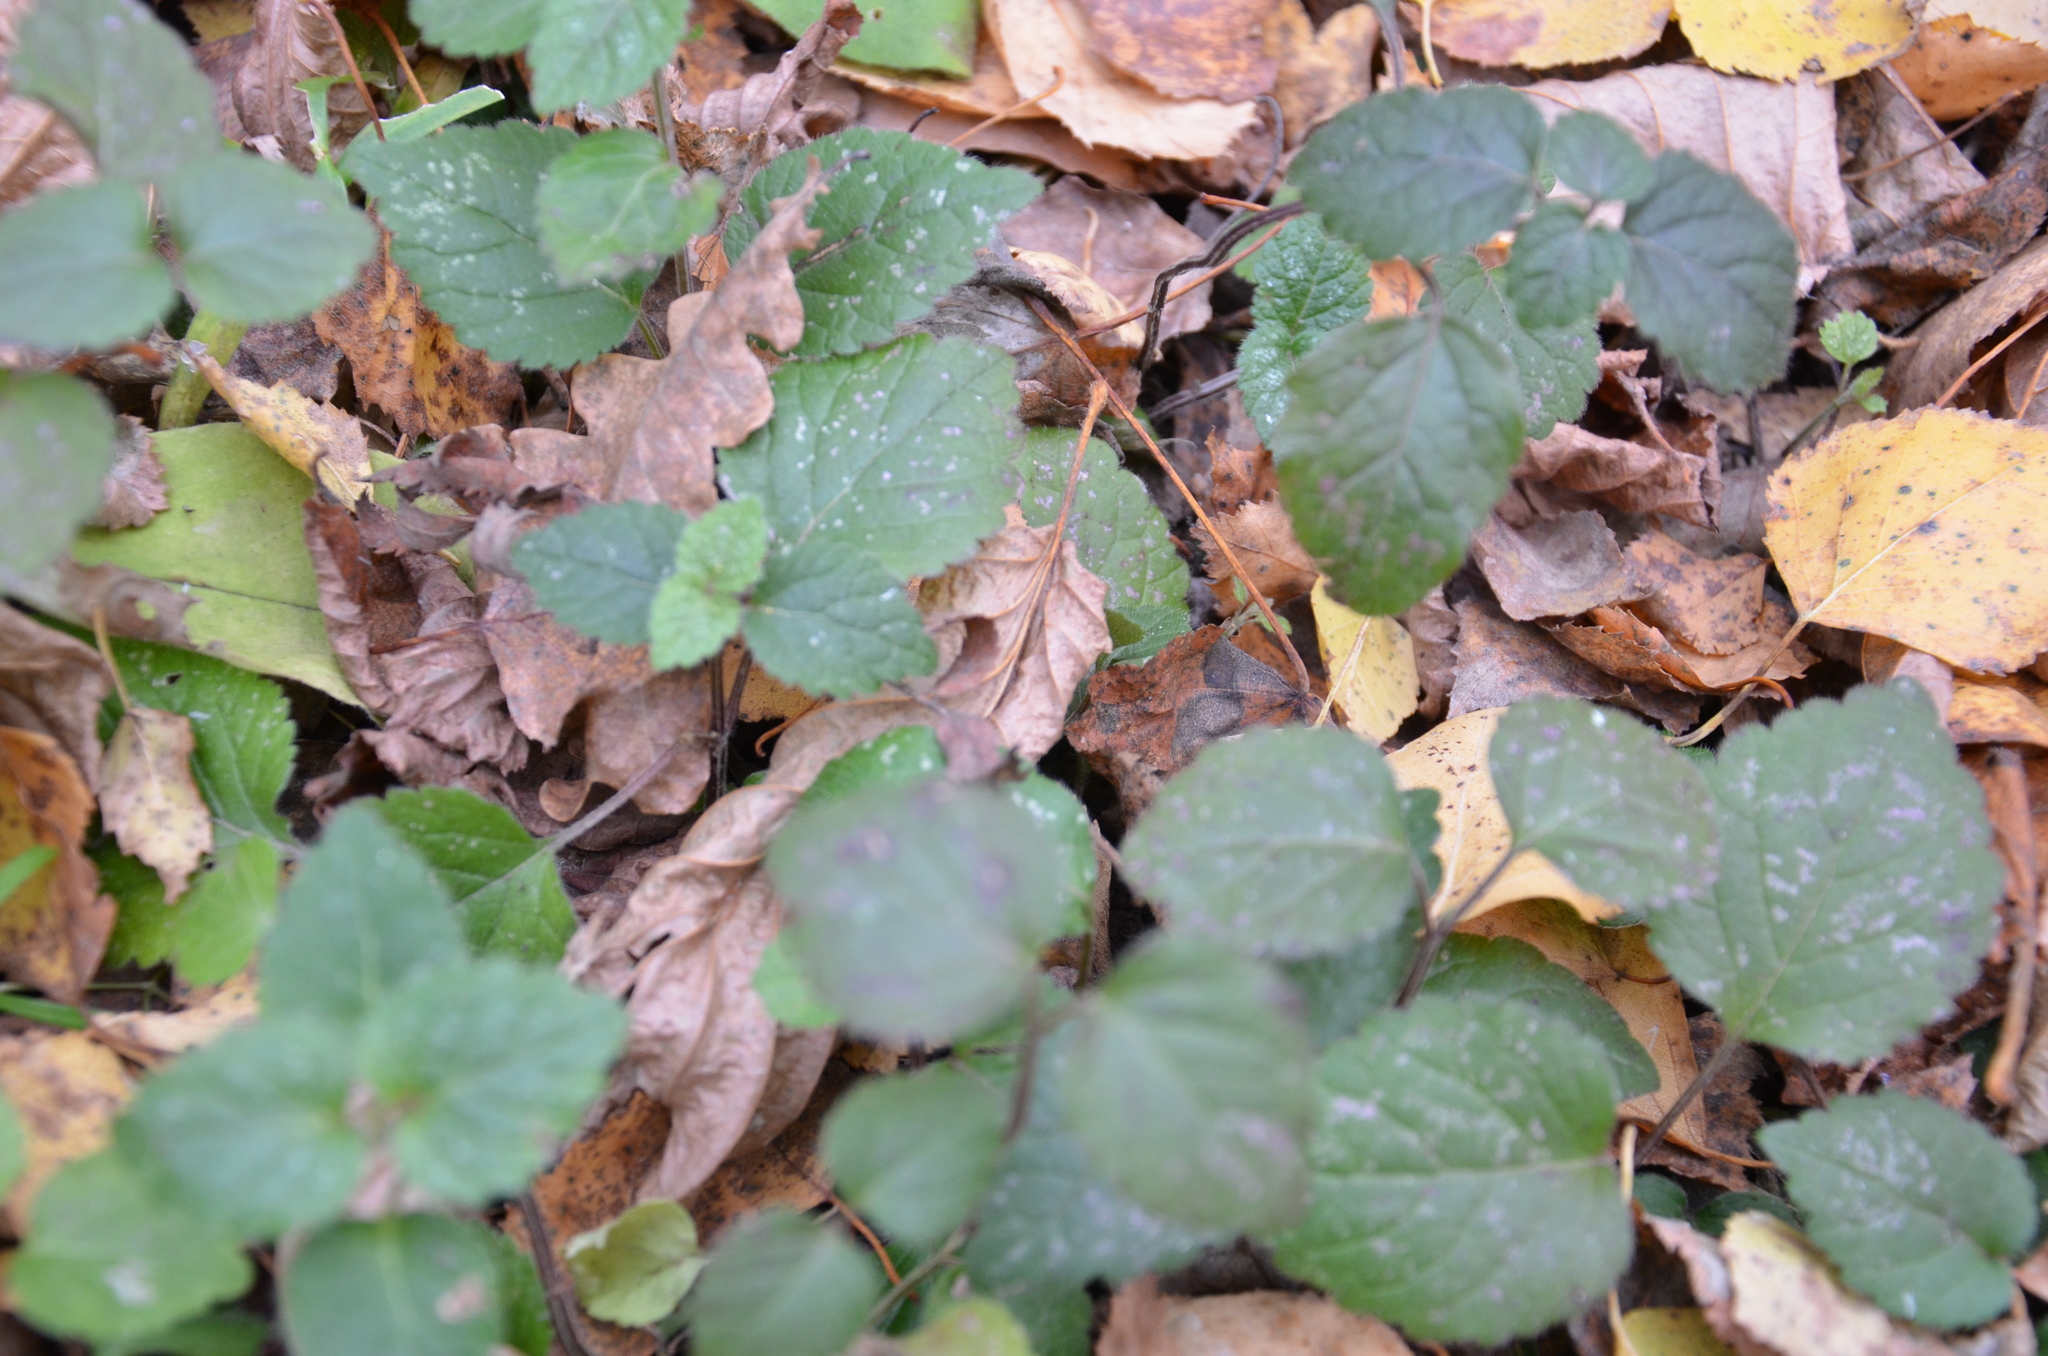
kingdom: Plantae
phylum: Tracheophyta
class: Magnoliopsida
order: Lamiales
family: Lamiaceae
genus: Lamium
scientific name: Lamium maculatum
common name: Spotted dead-nettle
